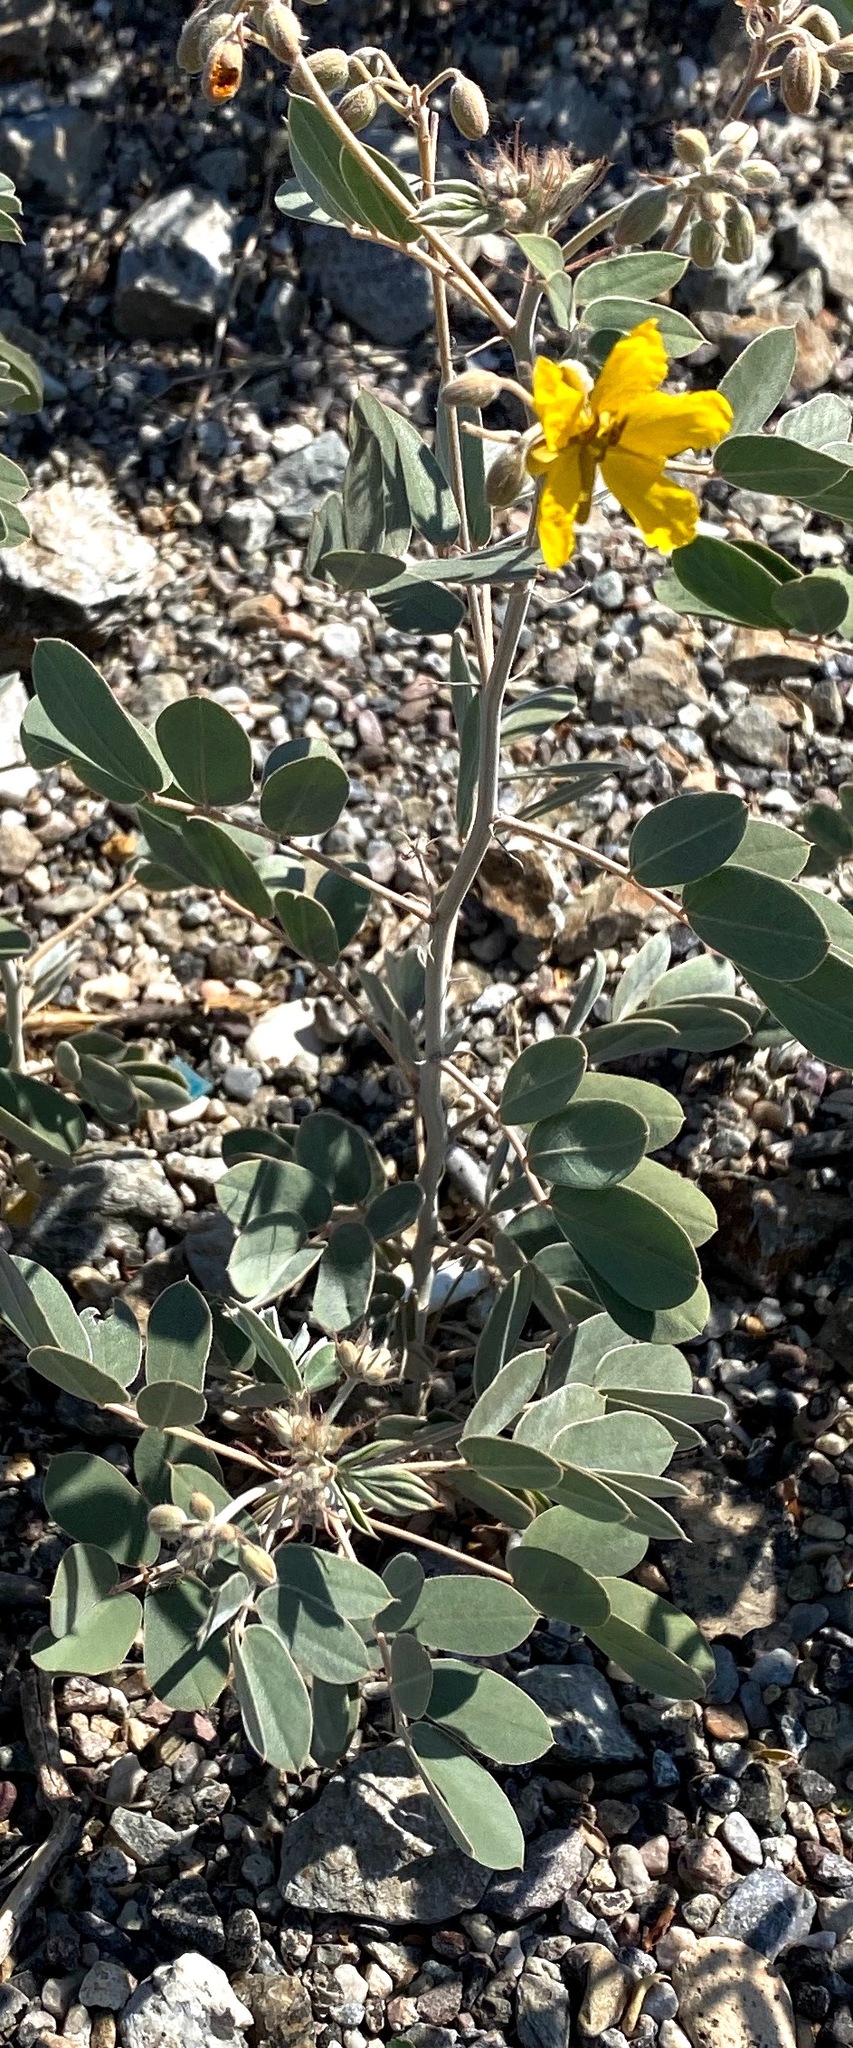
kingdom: Plantae
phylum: Tracheophyta
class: Magnoliopsida
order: Fabales
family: Fabaceae
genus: Senna
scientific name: Senna covesii
